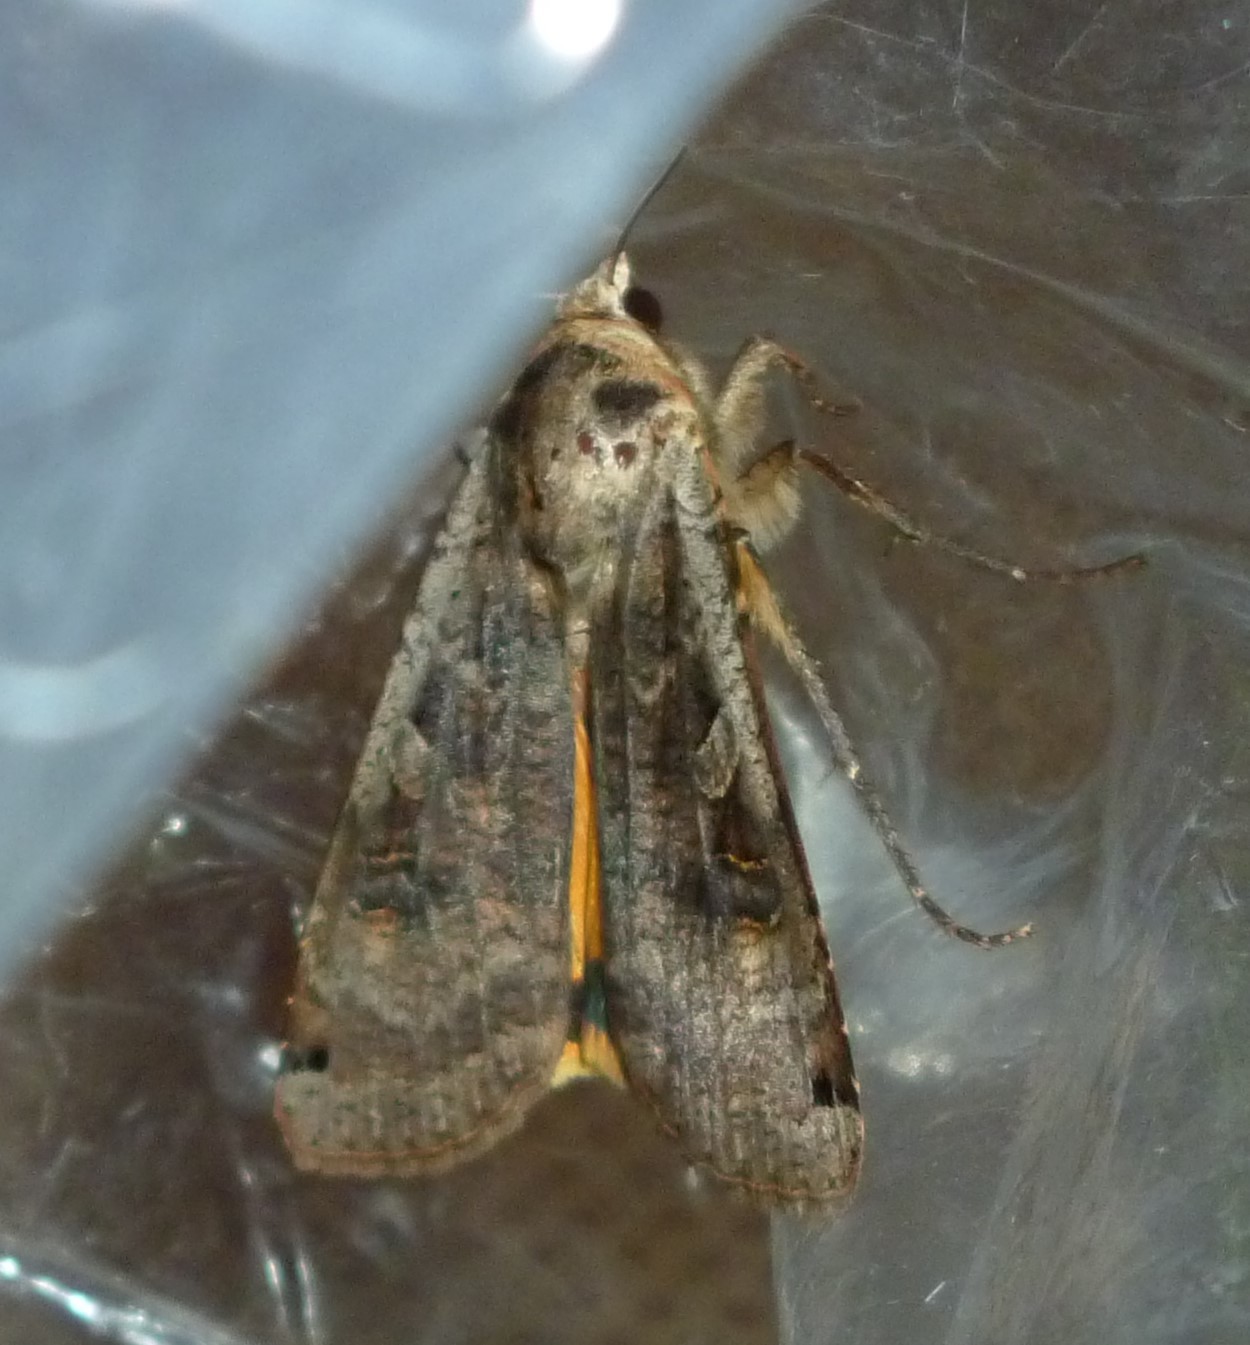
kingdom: Animalia
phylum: Arthropoda
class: Insecta
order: Lepidoptera
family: Noctuidae
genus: Noctua
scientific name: Noctua pronuba
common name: Large yellow underwing
